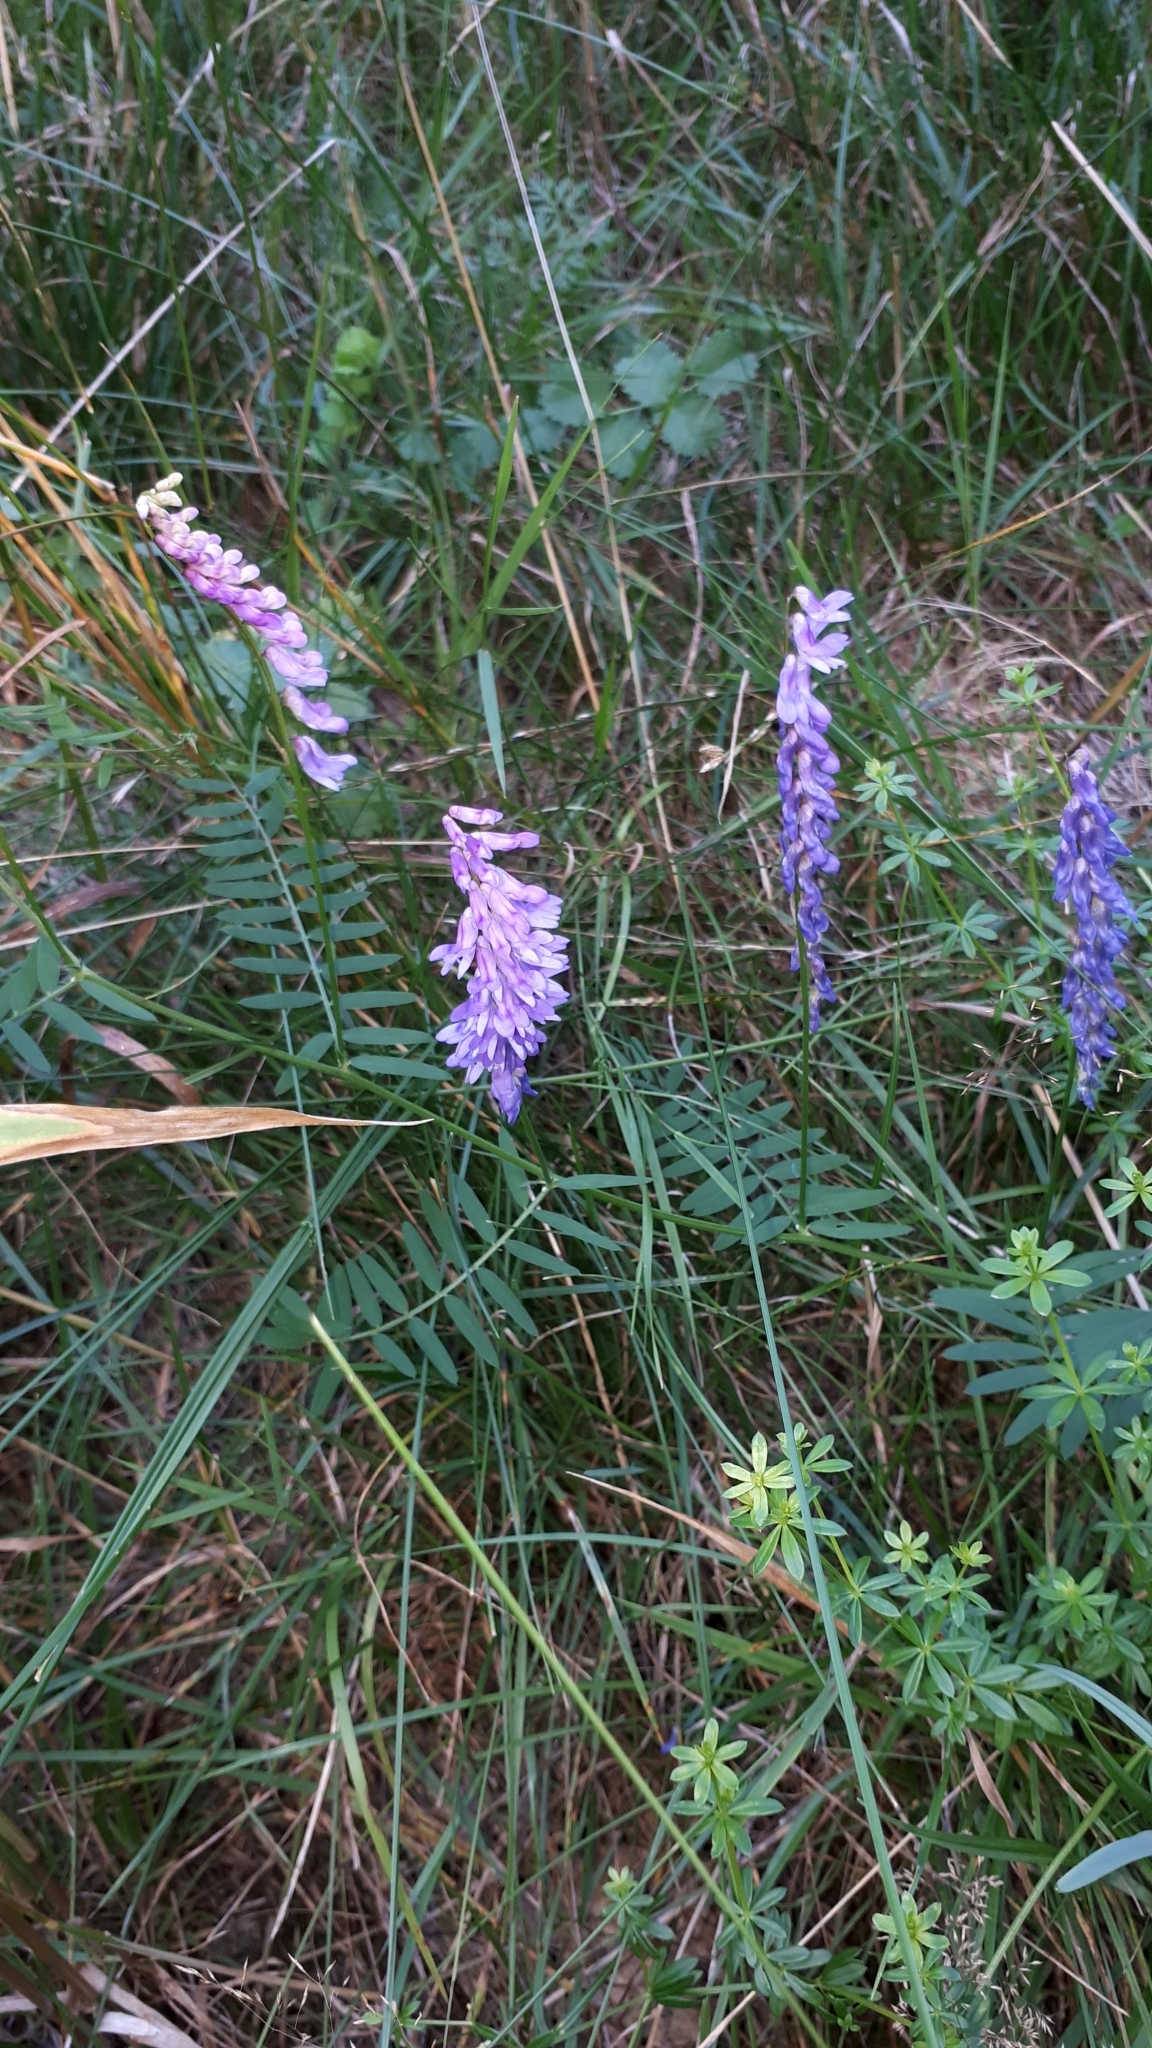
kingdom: Plantae
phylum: Tracheophyta
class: Magnoliopsida
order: Fabales
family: Fabaceae
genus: Vicia
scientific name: Vicia cracca
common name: Bird vetch
